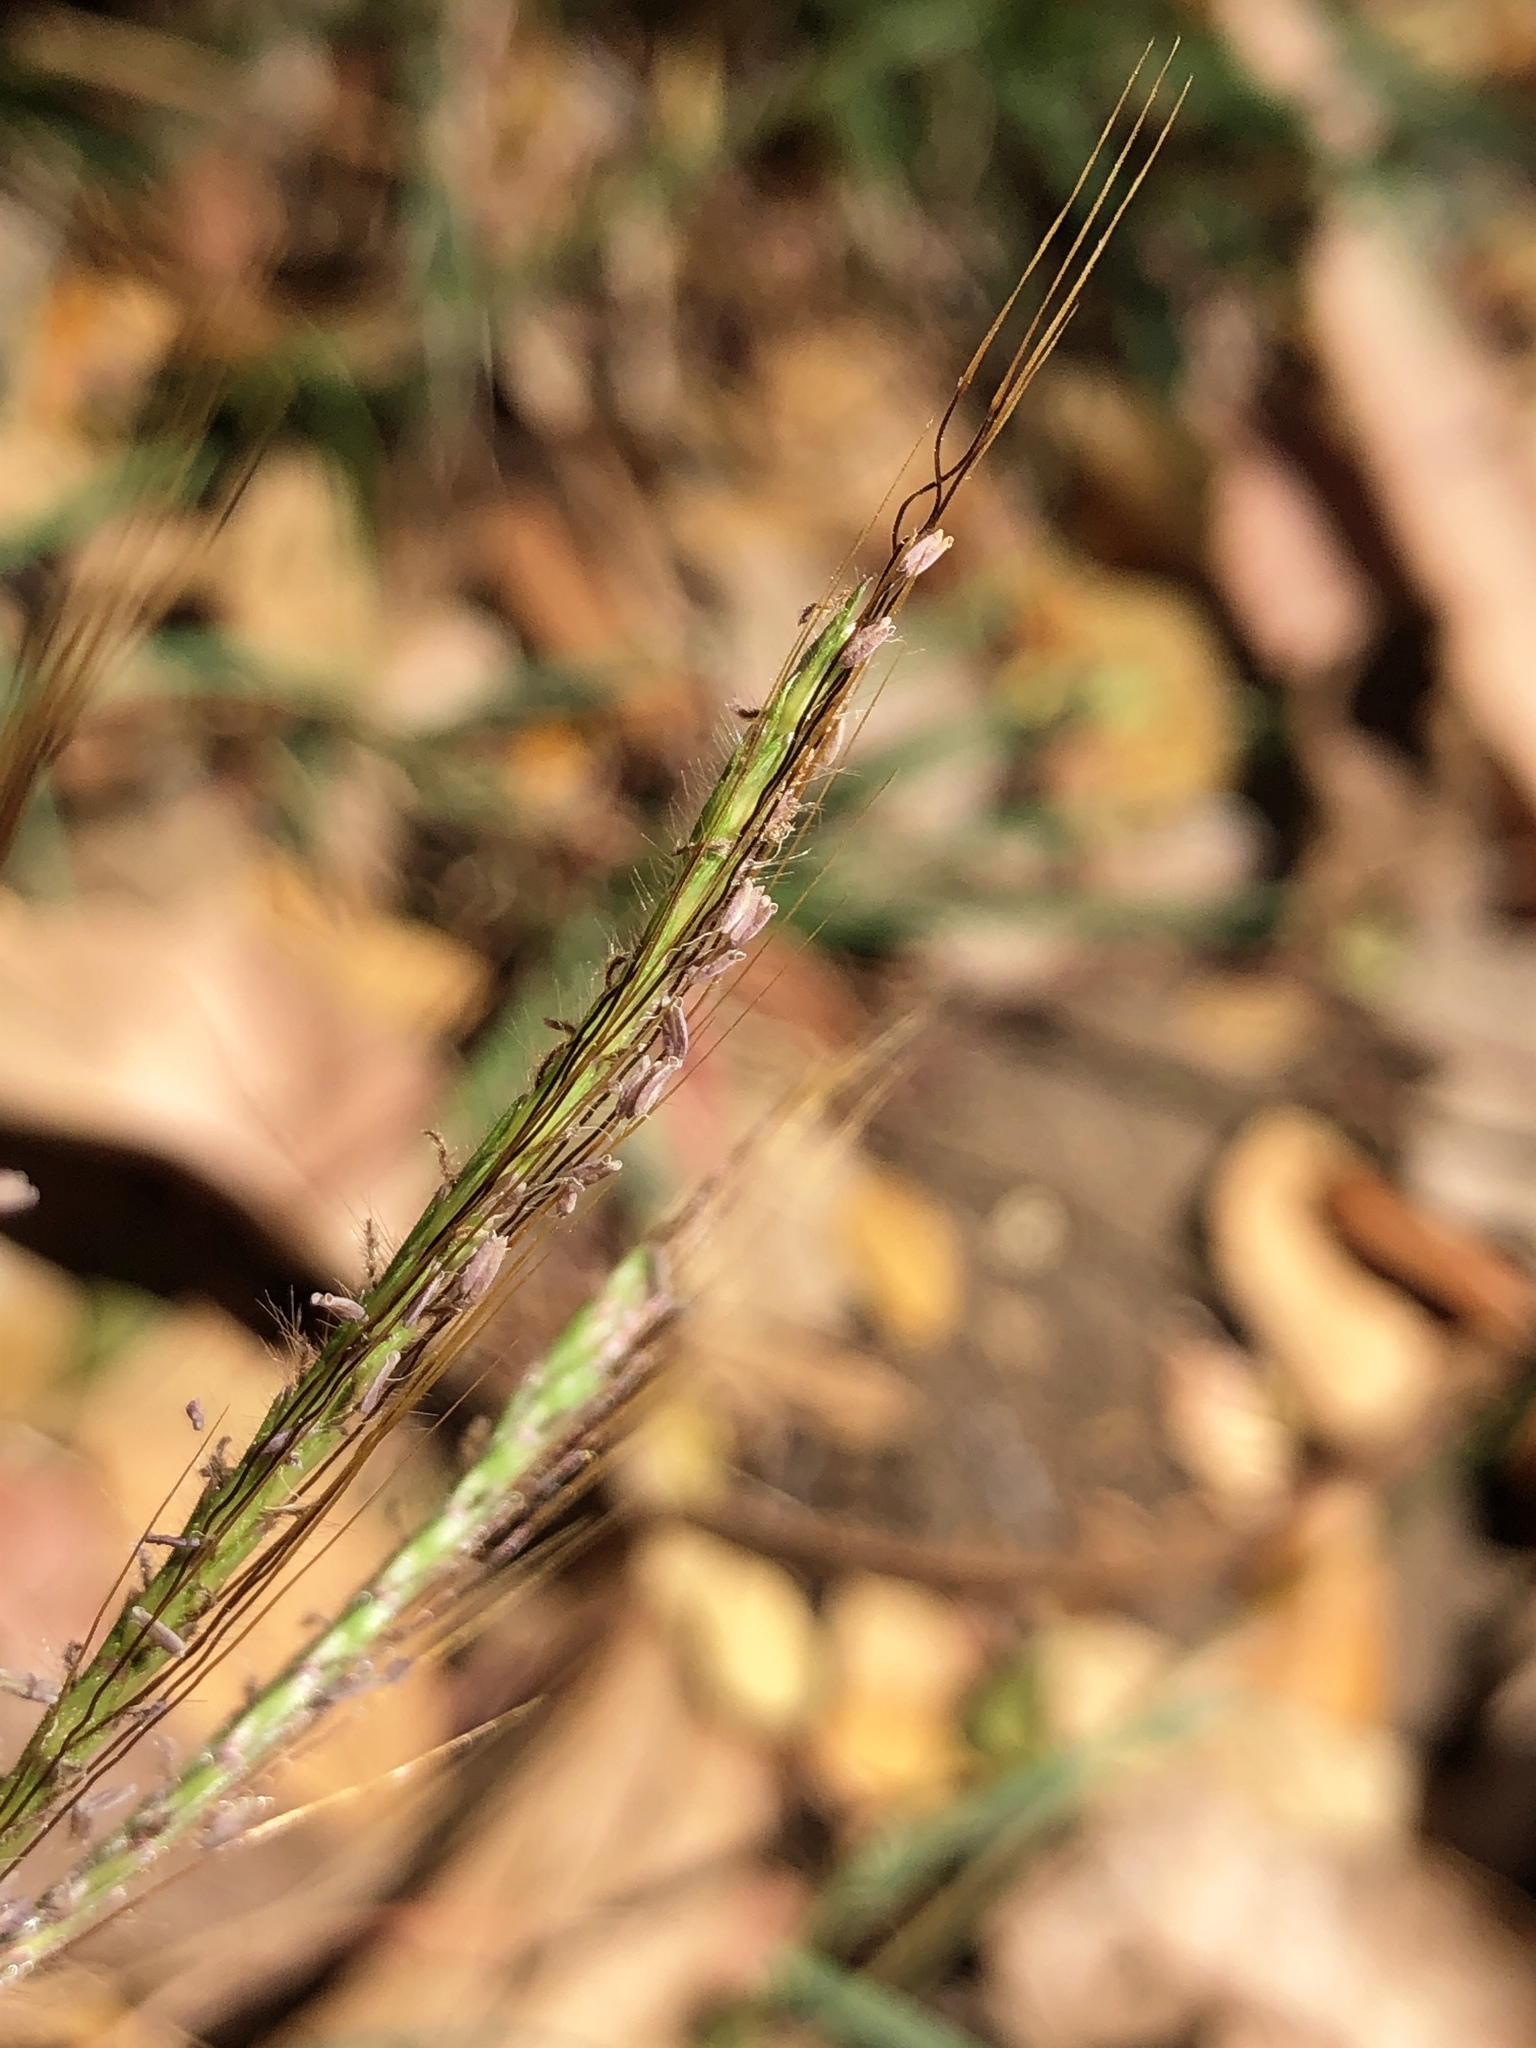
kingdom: Plantae
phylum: Tracheophyta
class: Liliopsida
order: Poales
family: Poaceae
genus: Dichanthium
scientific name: Dichanthium annulatum
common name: Kleberg's bluestem
